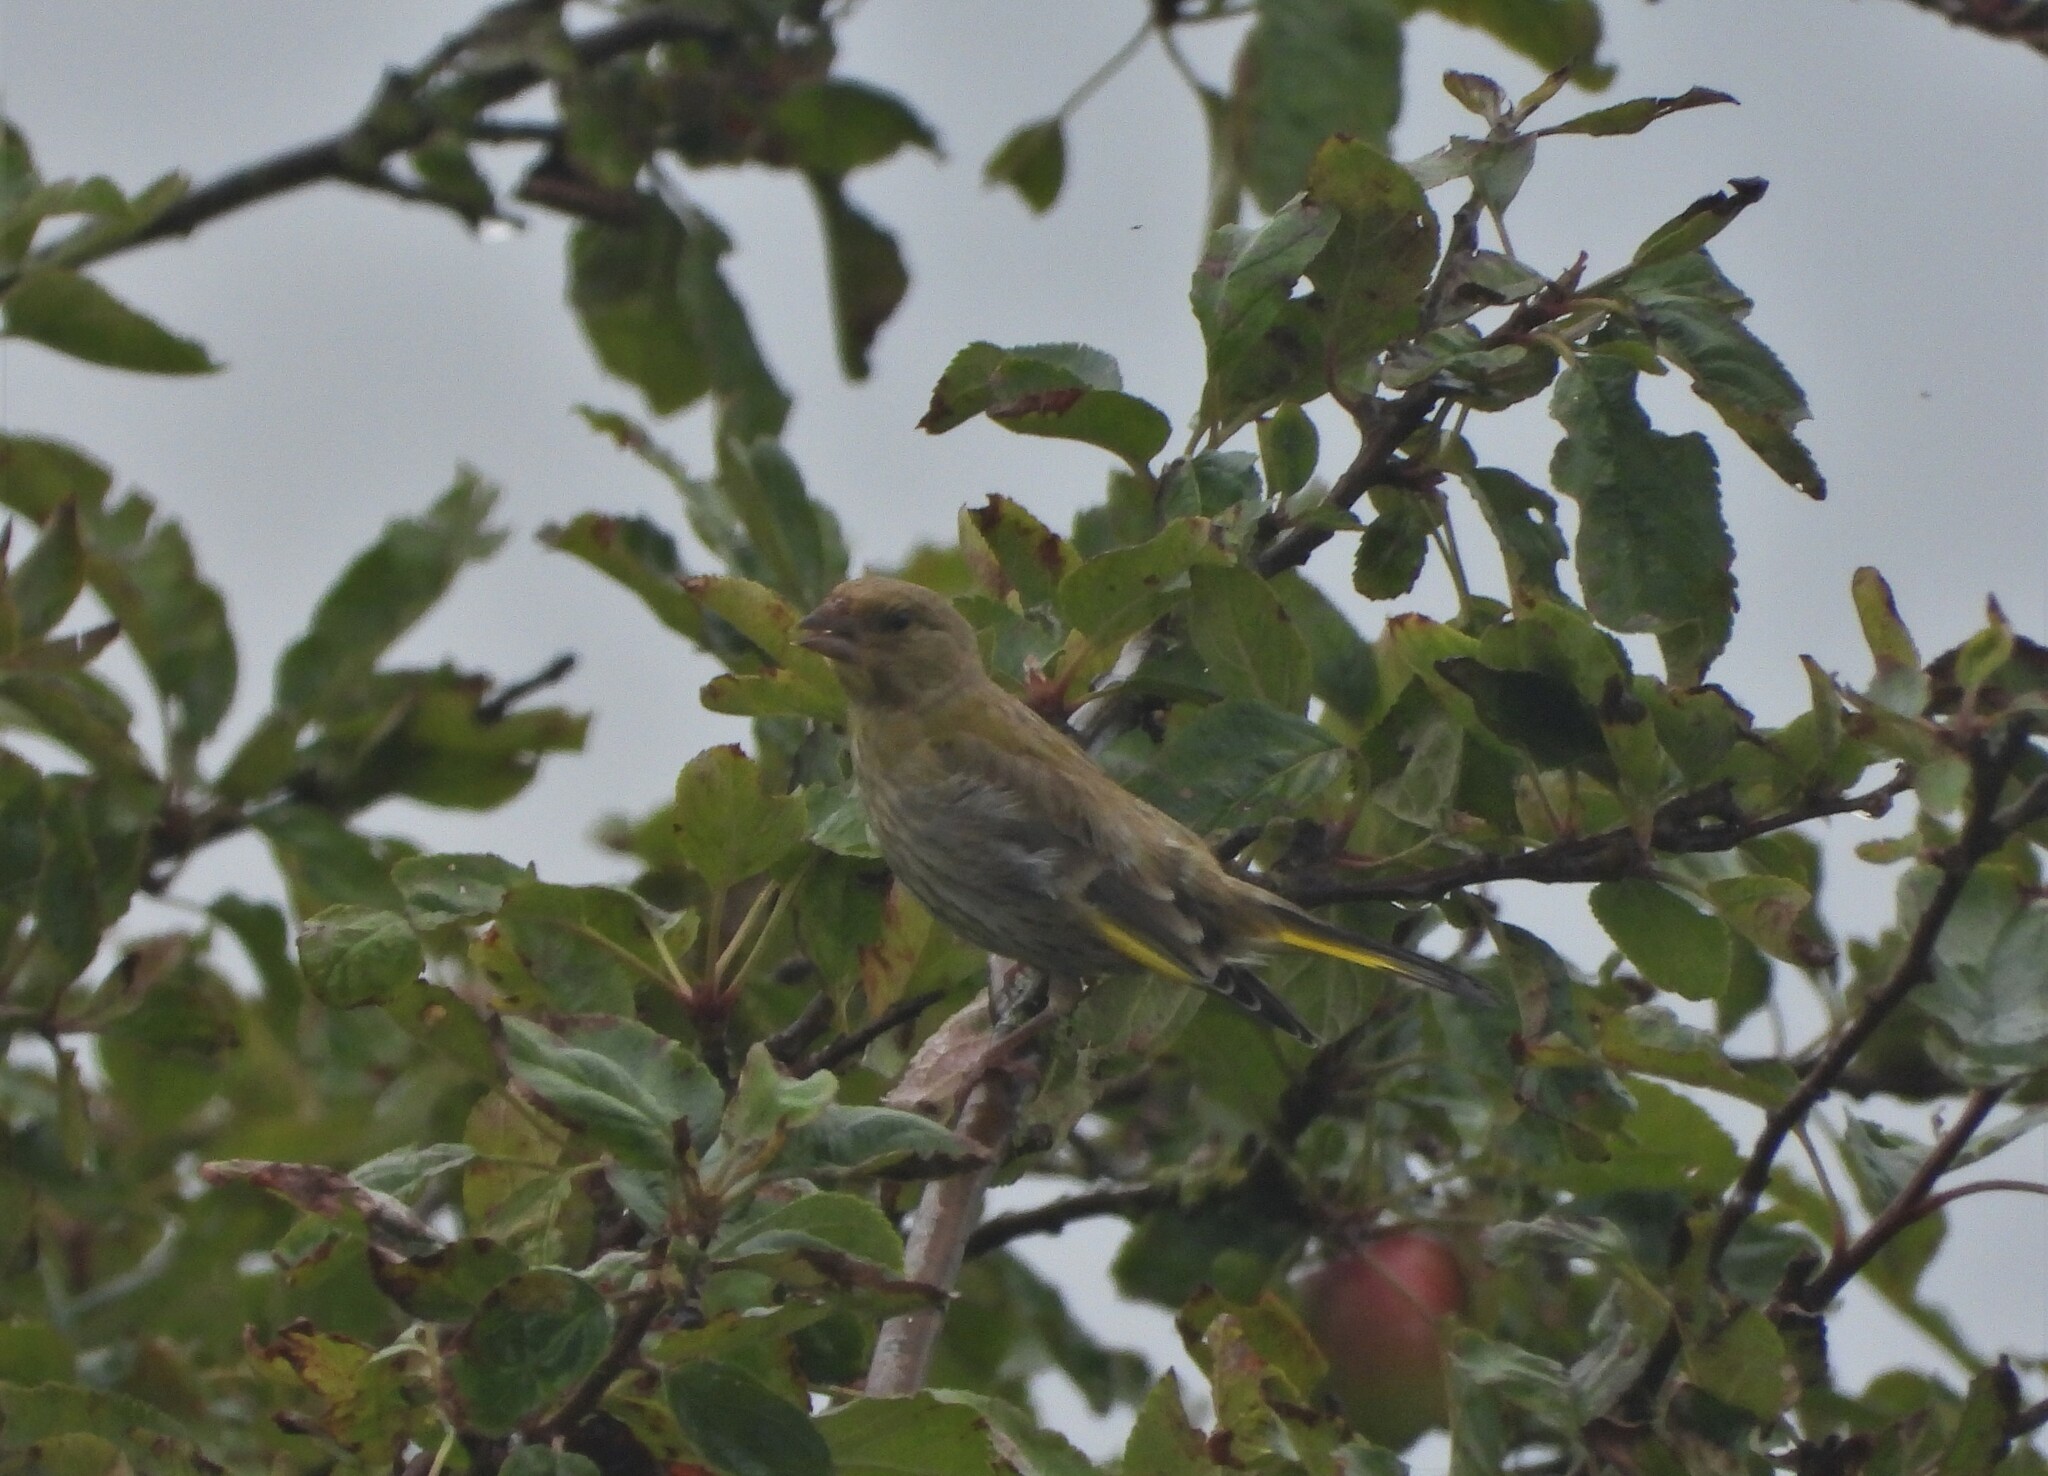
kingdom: Plantae
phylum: Tracheophyta
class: Liliopsida
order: Poales
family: Poaceae
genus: Chloris
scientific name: Chloris chloris
